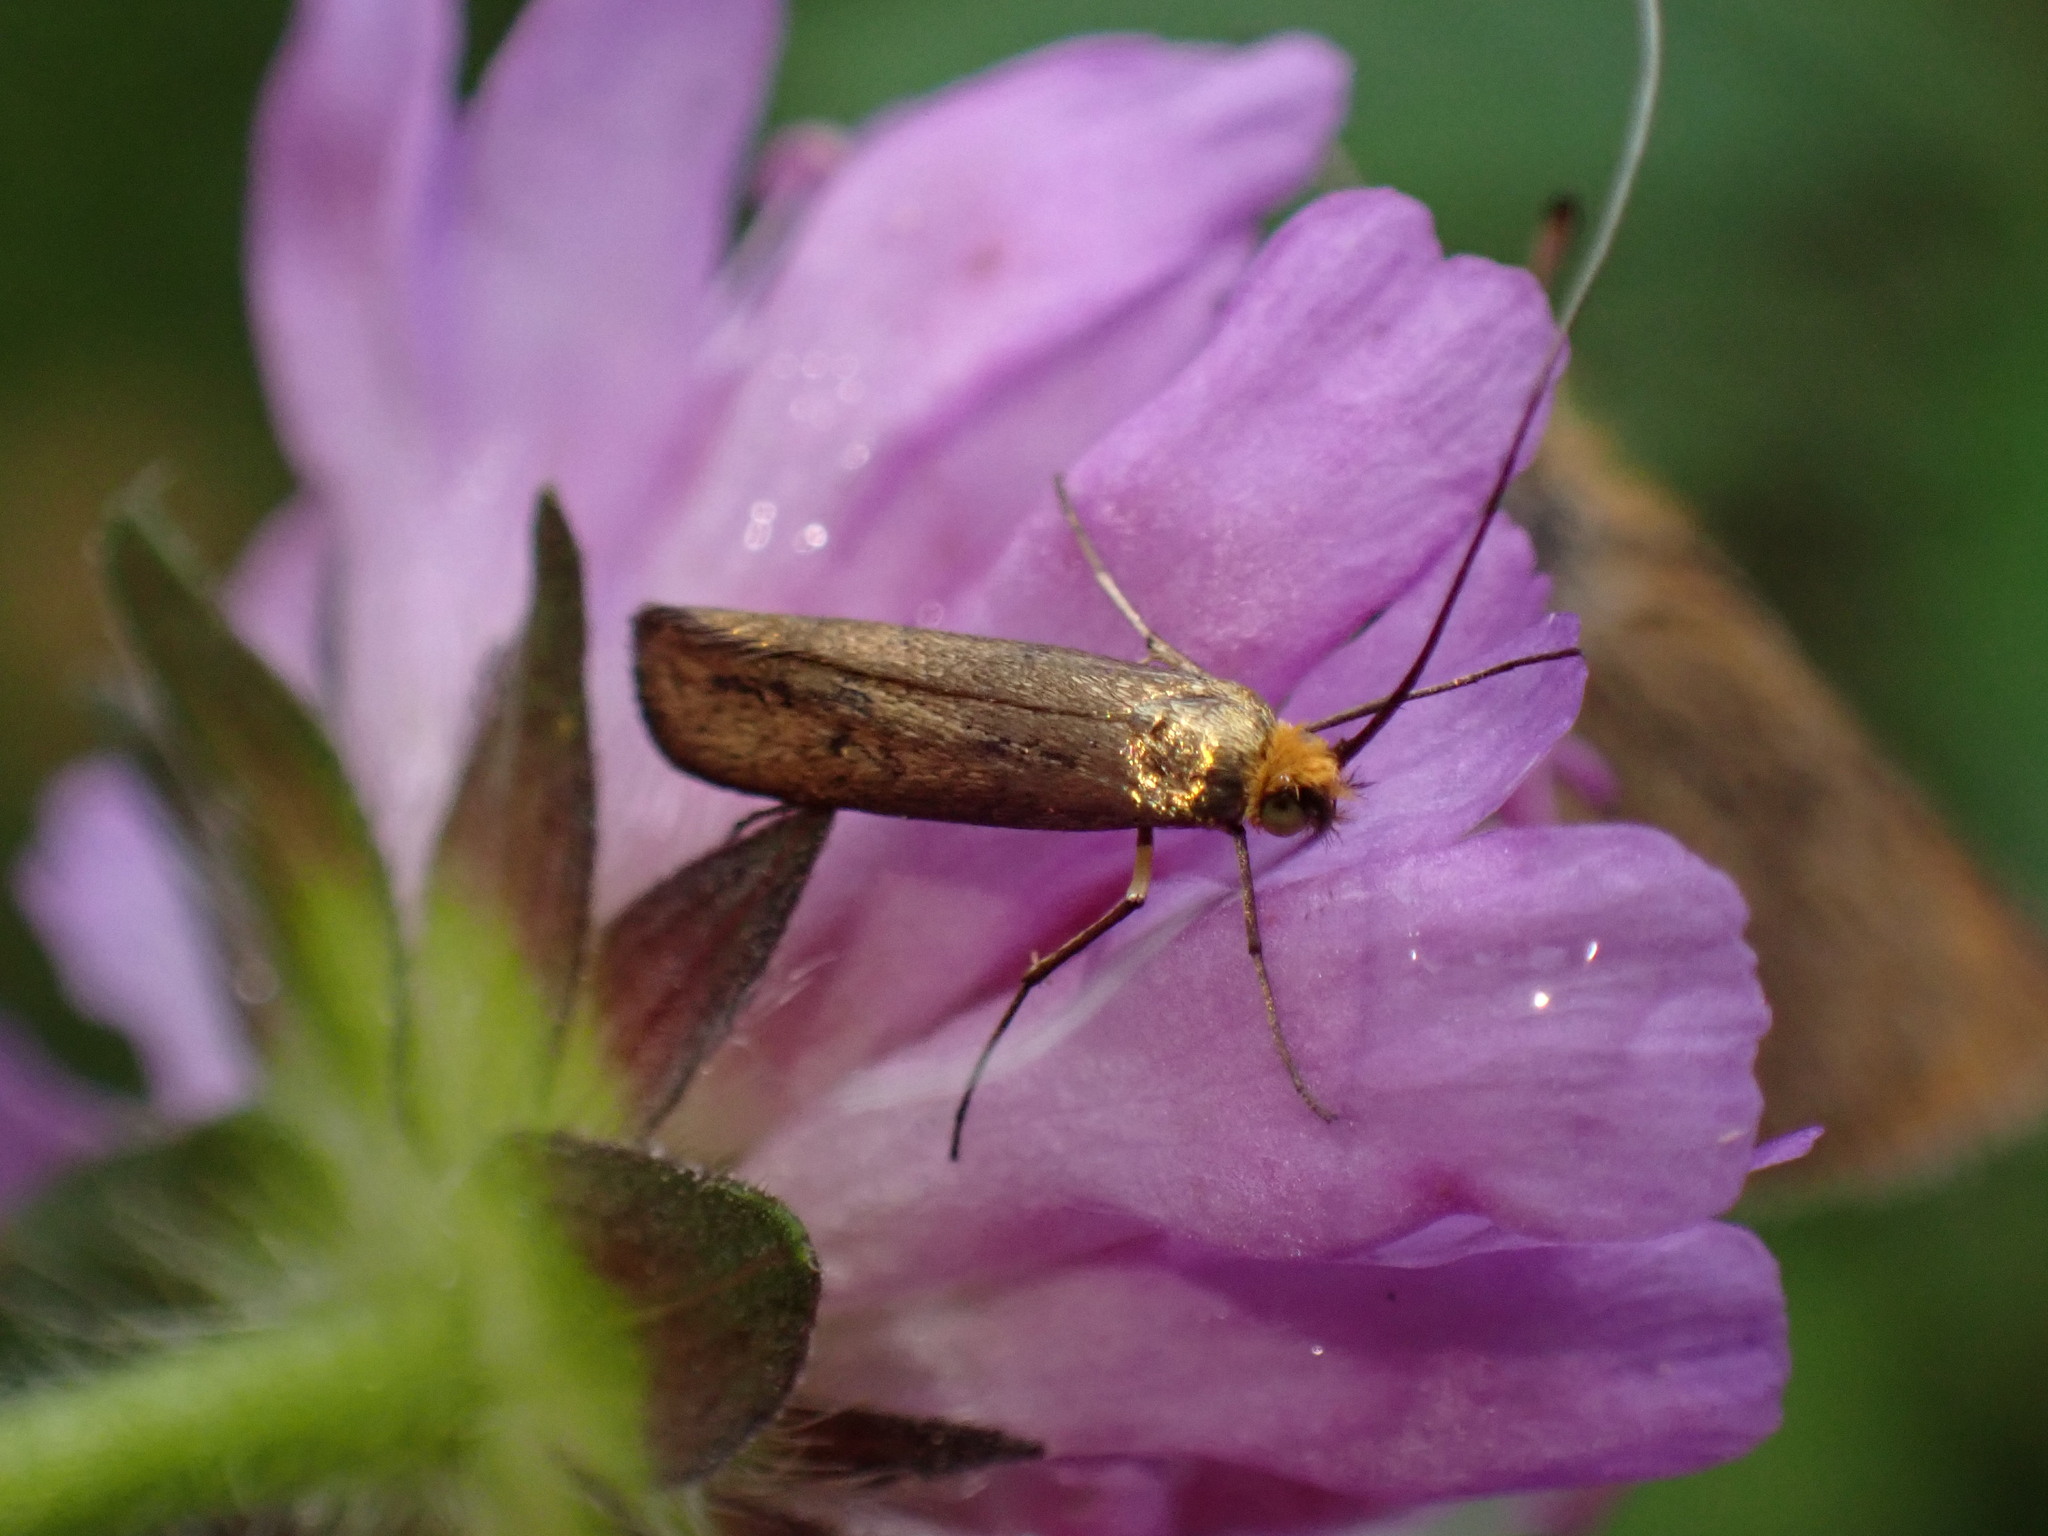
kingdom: Animalia
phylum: Arthropoda
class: Insecta
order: Lepidoptera
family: Adelidae
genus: Nemophora
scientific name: Nemophora metallica
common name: Brassy long-horn
